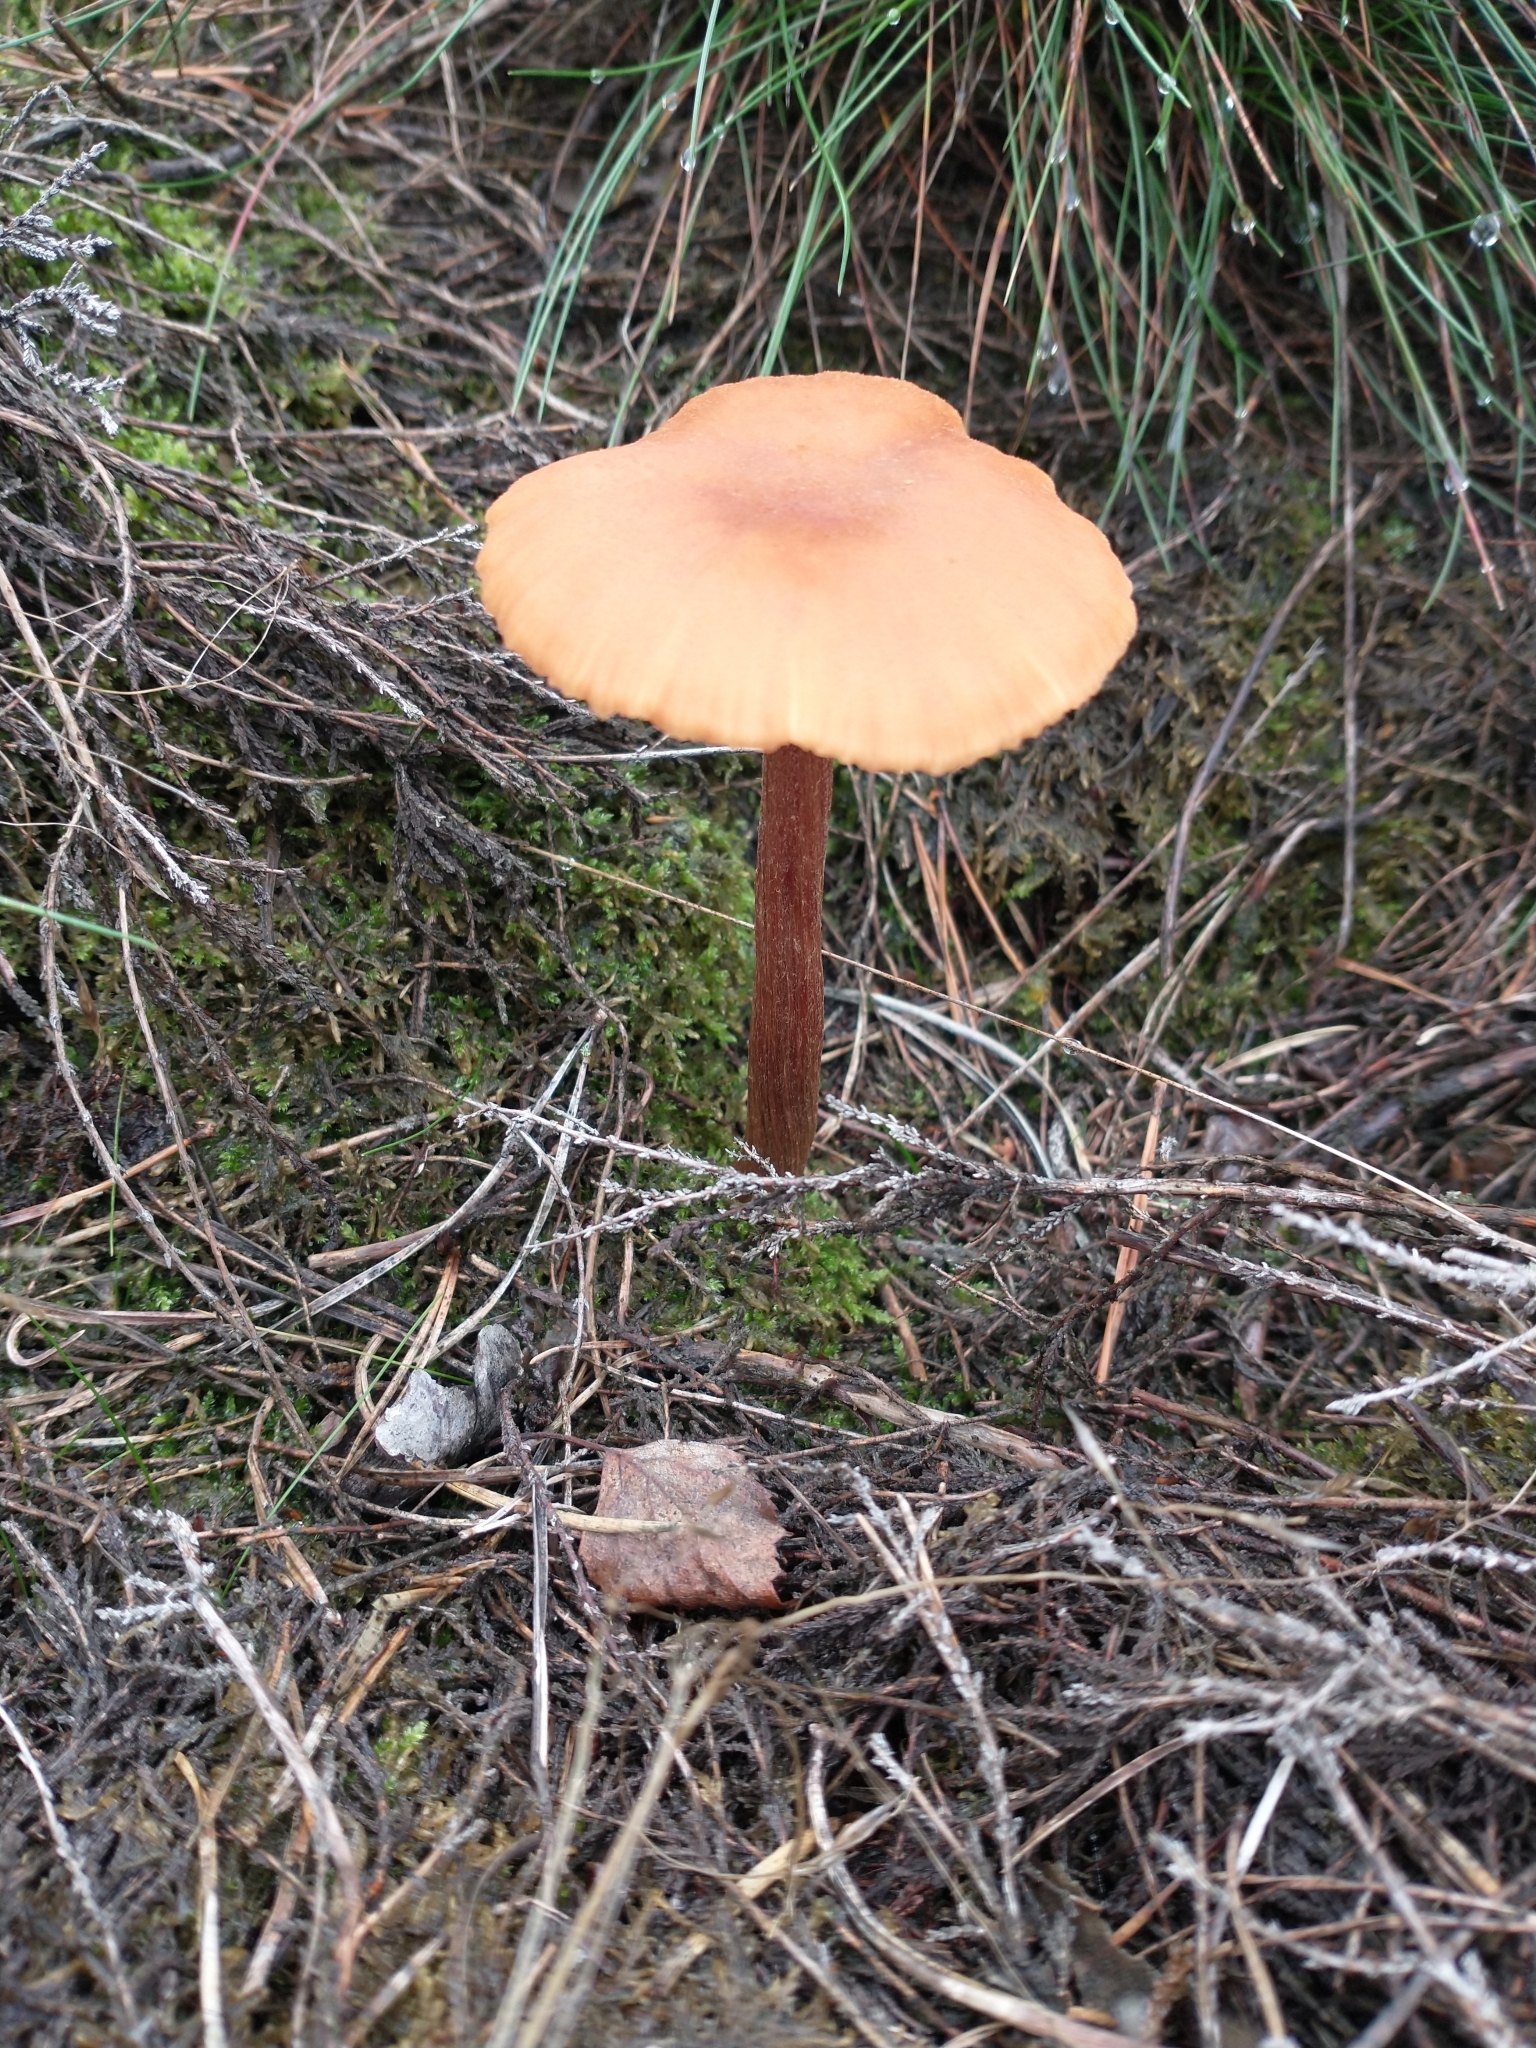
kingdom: Fungi
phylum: Basidiomycota
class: Agaricomycetes
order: Agaricales
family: Hydnangiaceae
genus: Laccaria
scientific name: Laccaria laccata
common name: Deceiver
